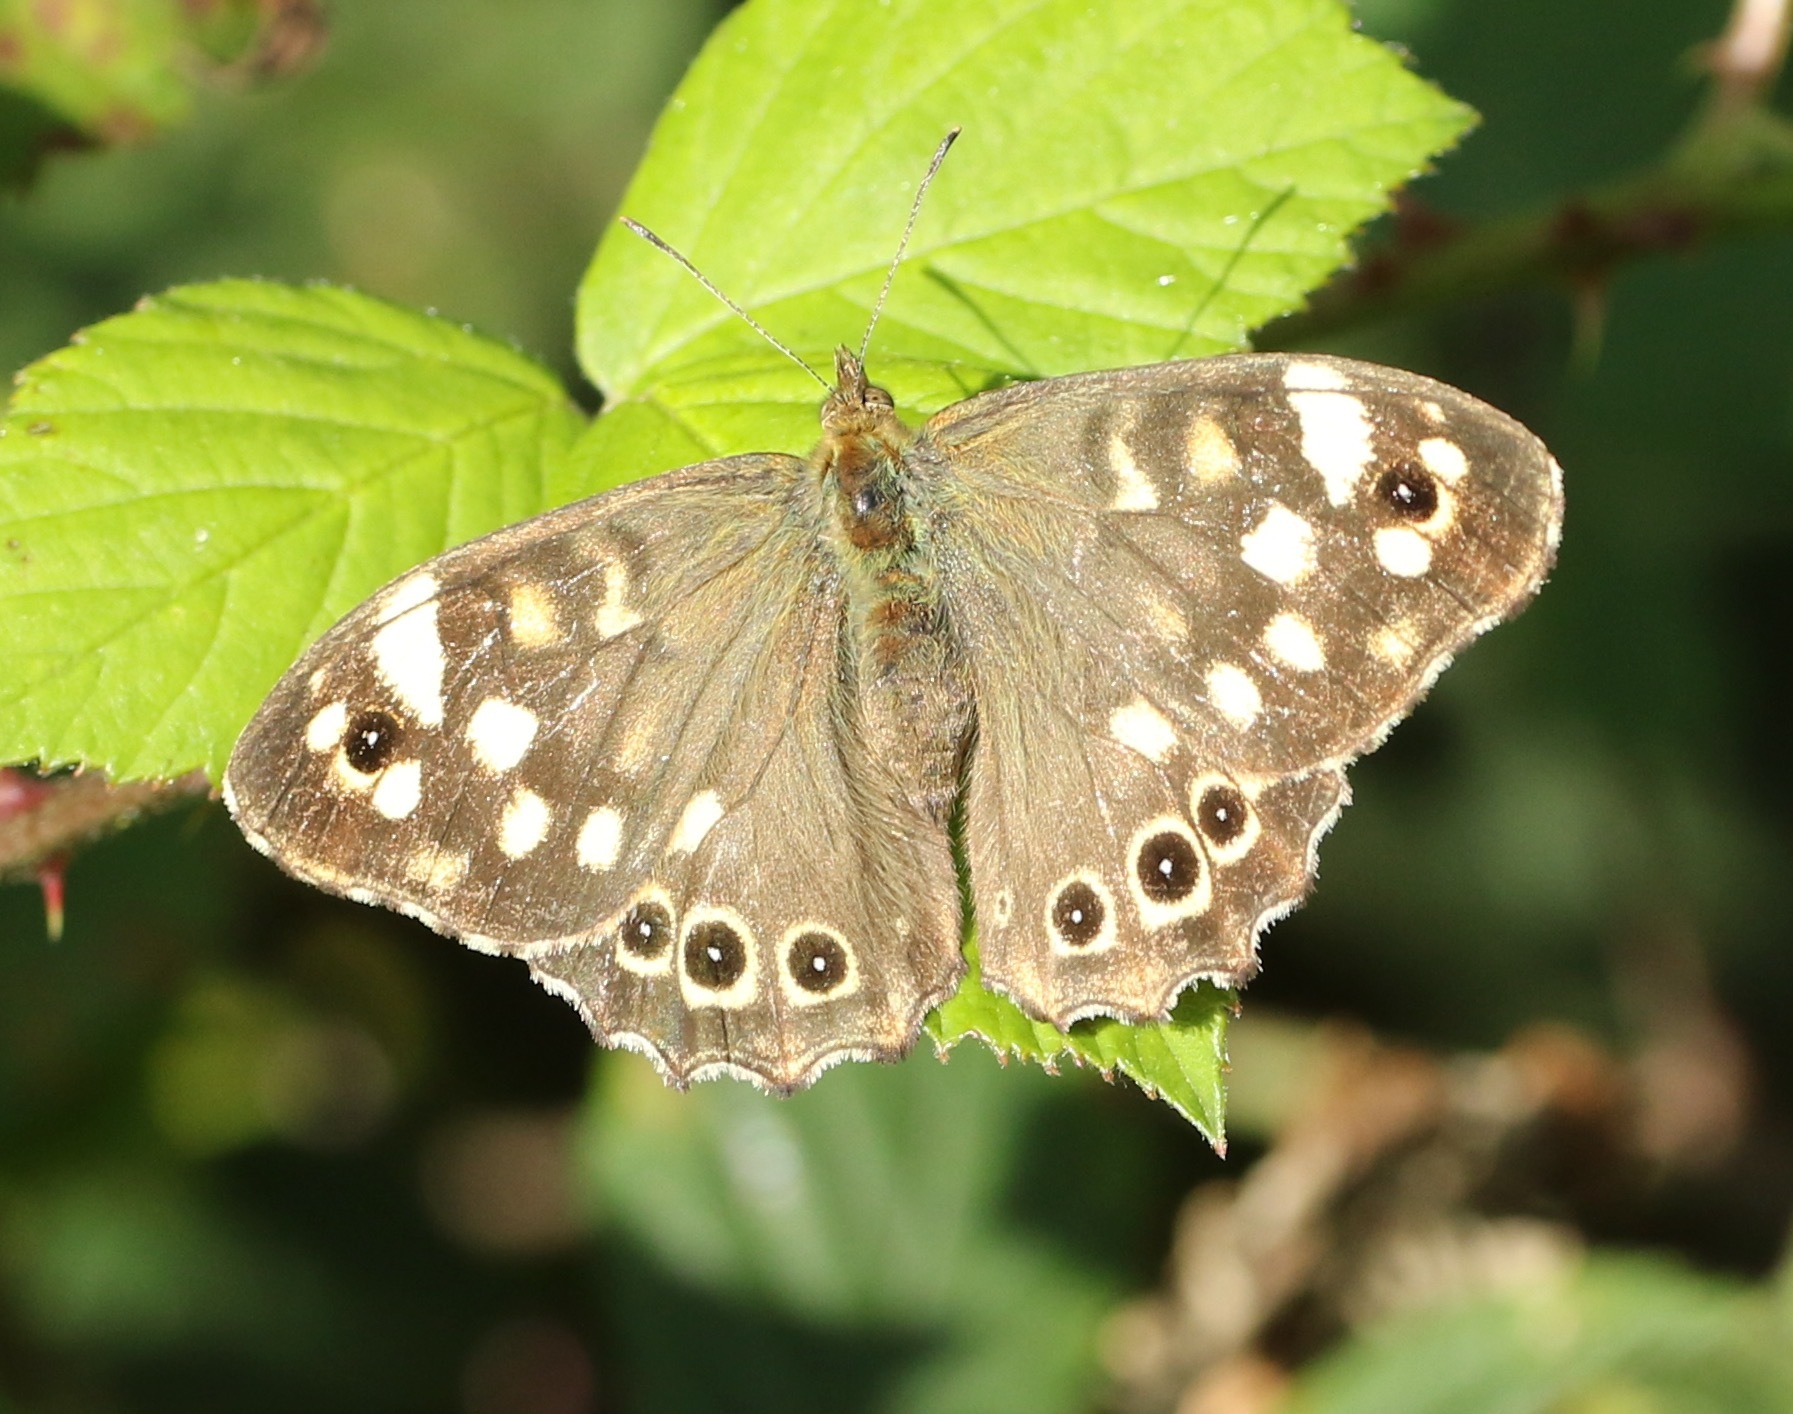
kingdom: Animalia
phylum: Arthropoda
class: Insecta
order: Lepidoptera
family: Nymphalidae
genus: Pararge
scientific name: Pararge aegeria
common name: Speckled wood
